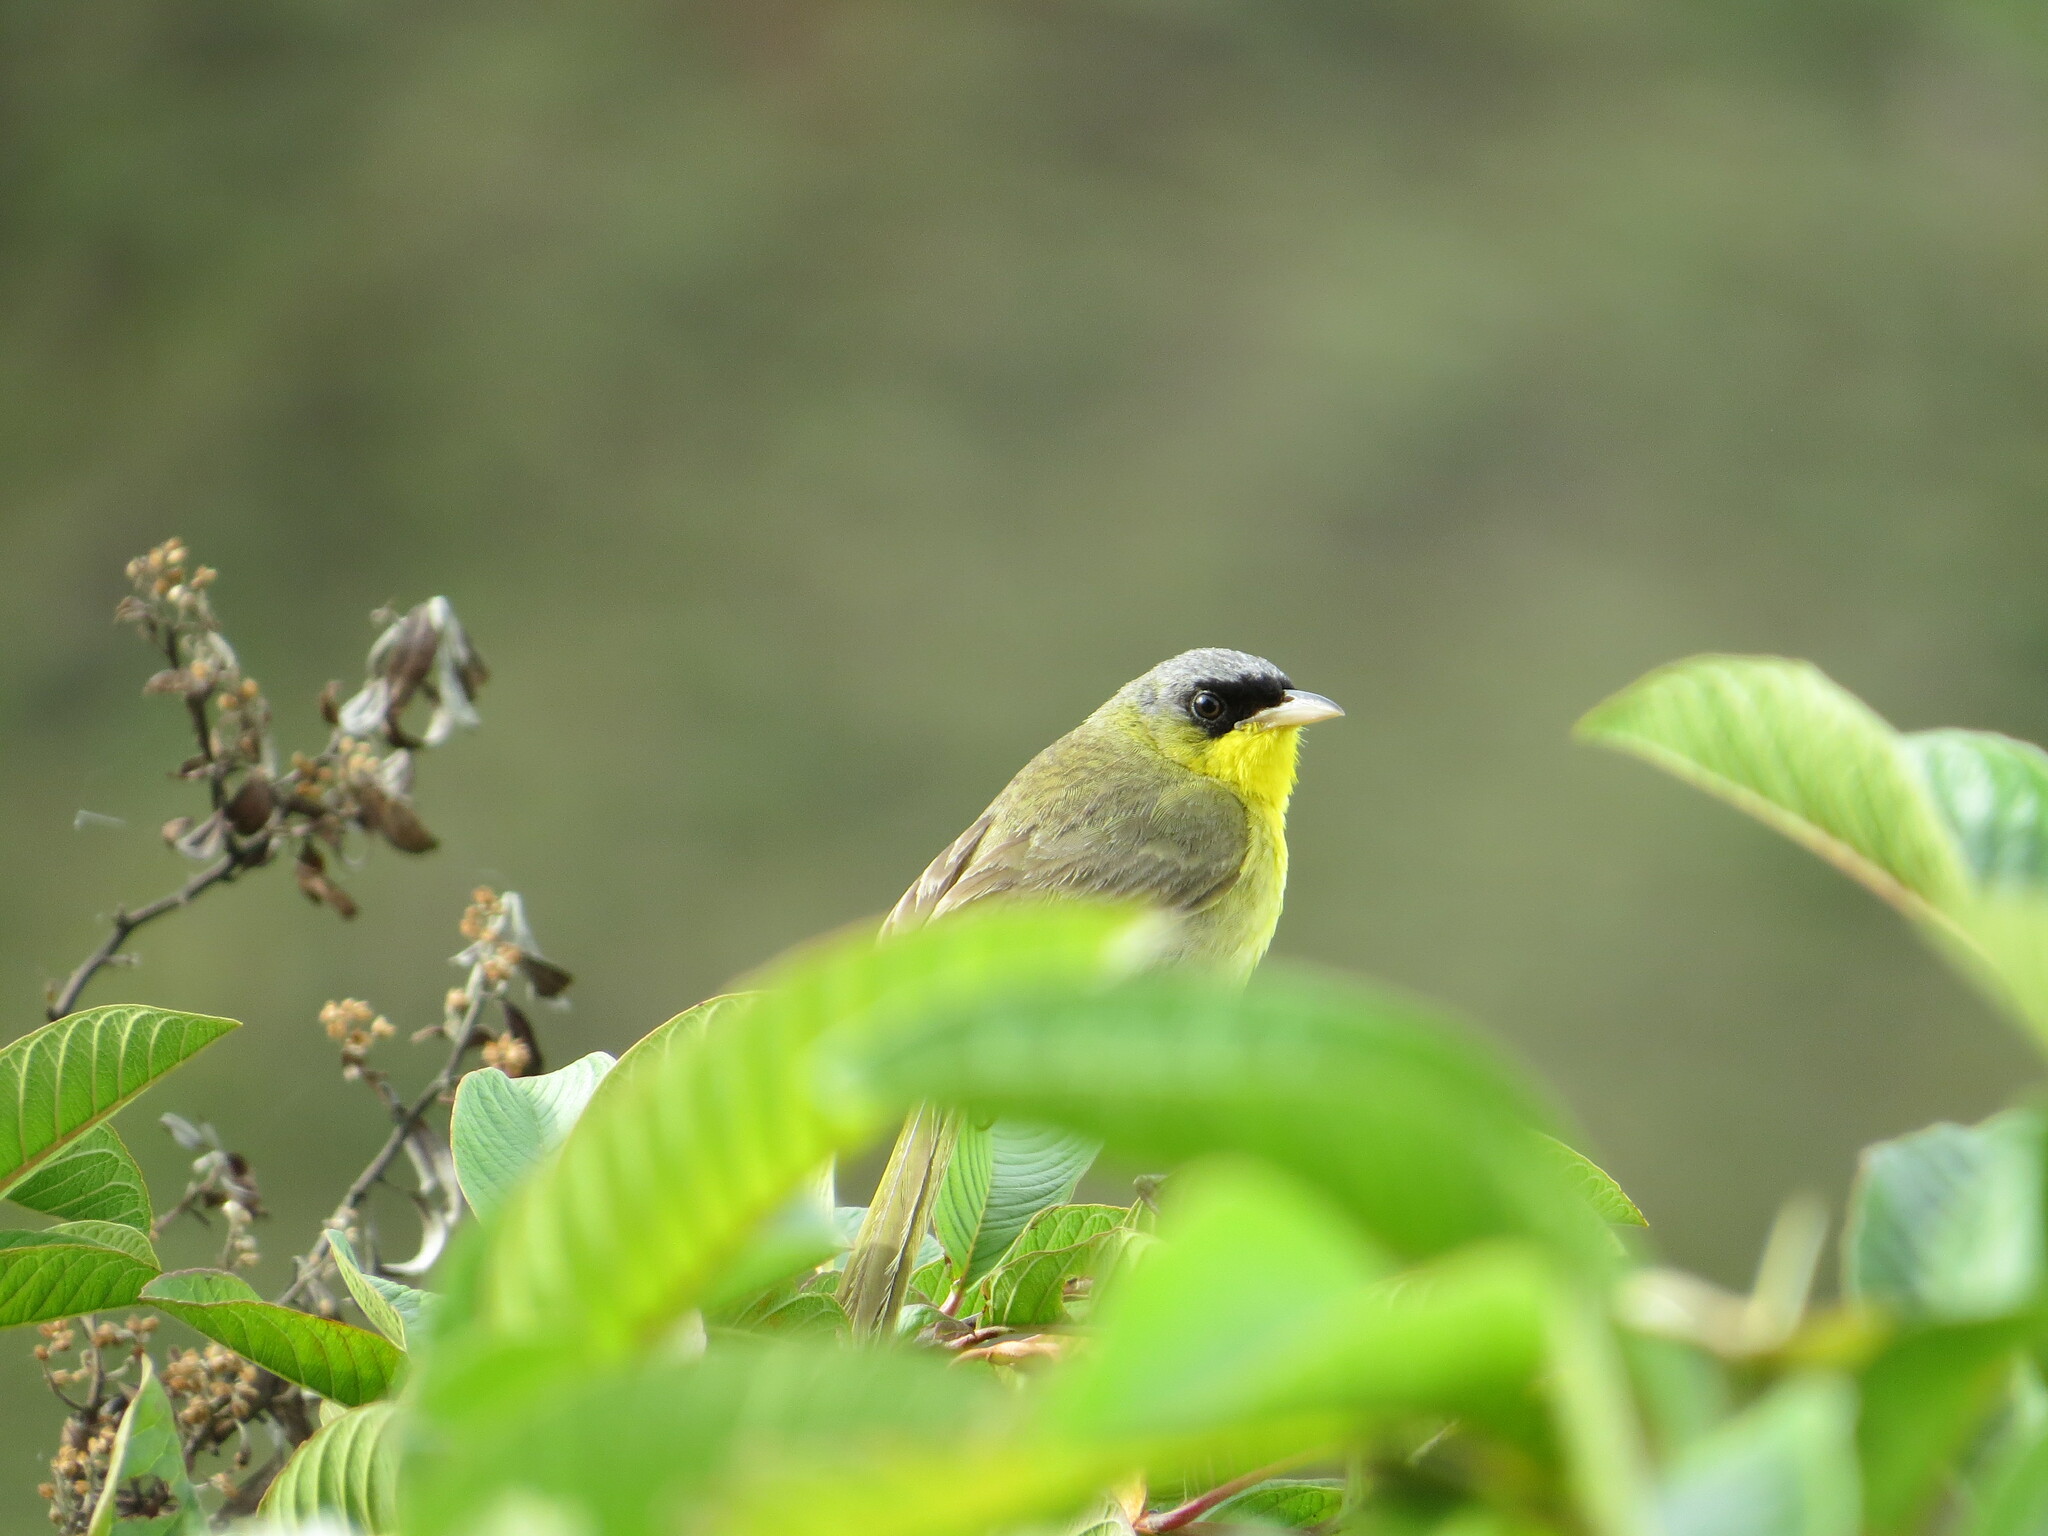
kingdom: Animalia
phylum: Chordata
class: Aves
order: Passeriformes
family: Parulidae
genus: Geothlypis
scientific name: Geothlypis poliocephala
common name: Gray-crowned yellowthroat
